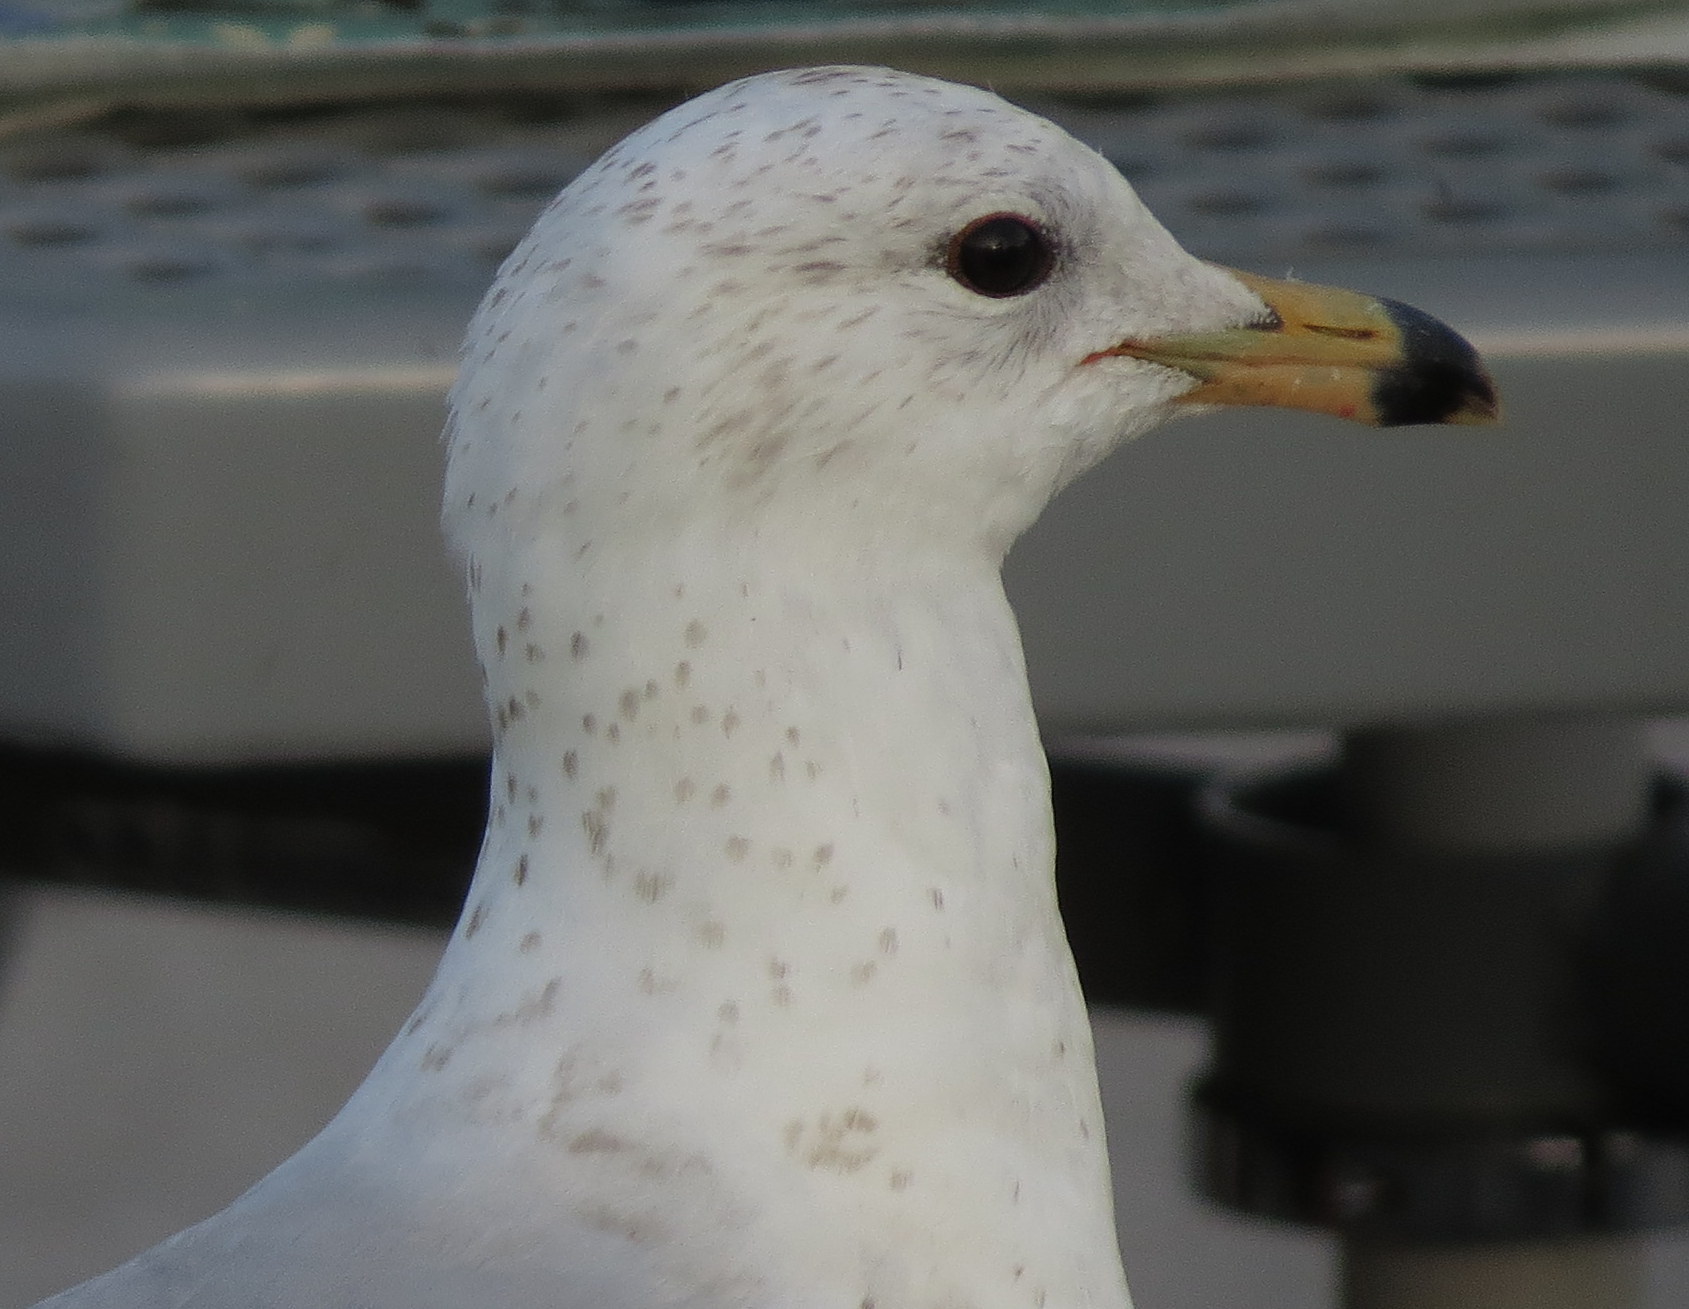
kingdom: Animalia
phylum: Chordata
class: Aves
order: Charadriiformes
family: Laridae
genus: Larus
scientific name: Larus delawarensis
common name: Ring-billed gull
